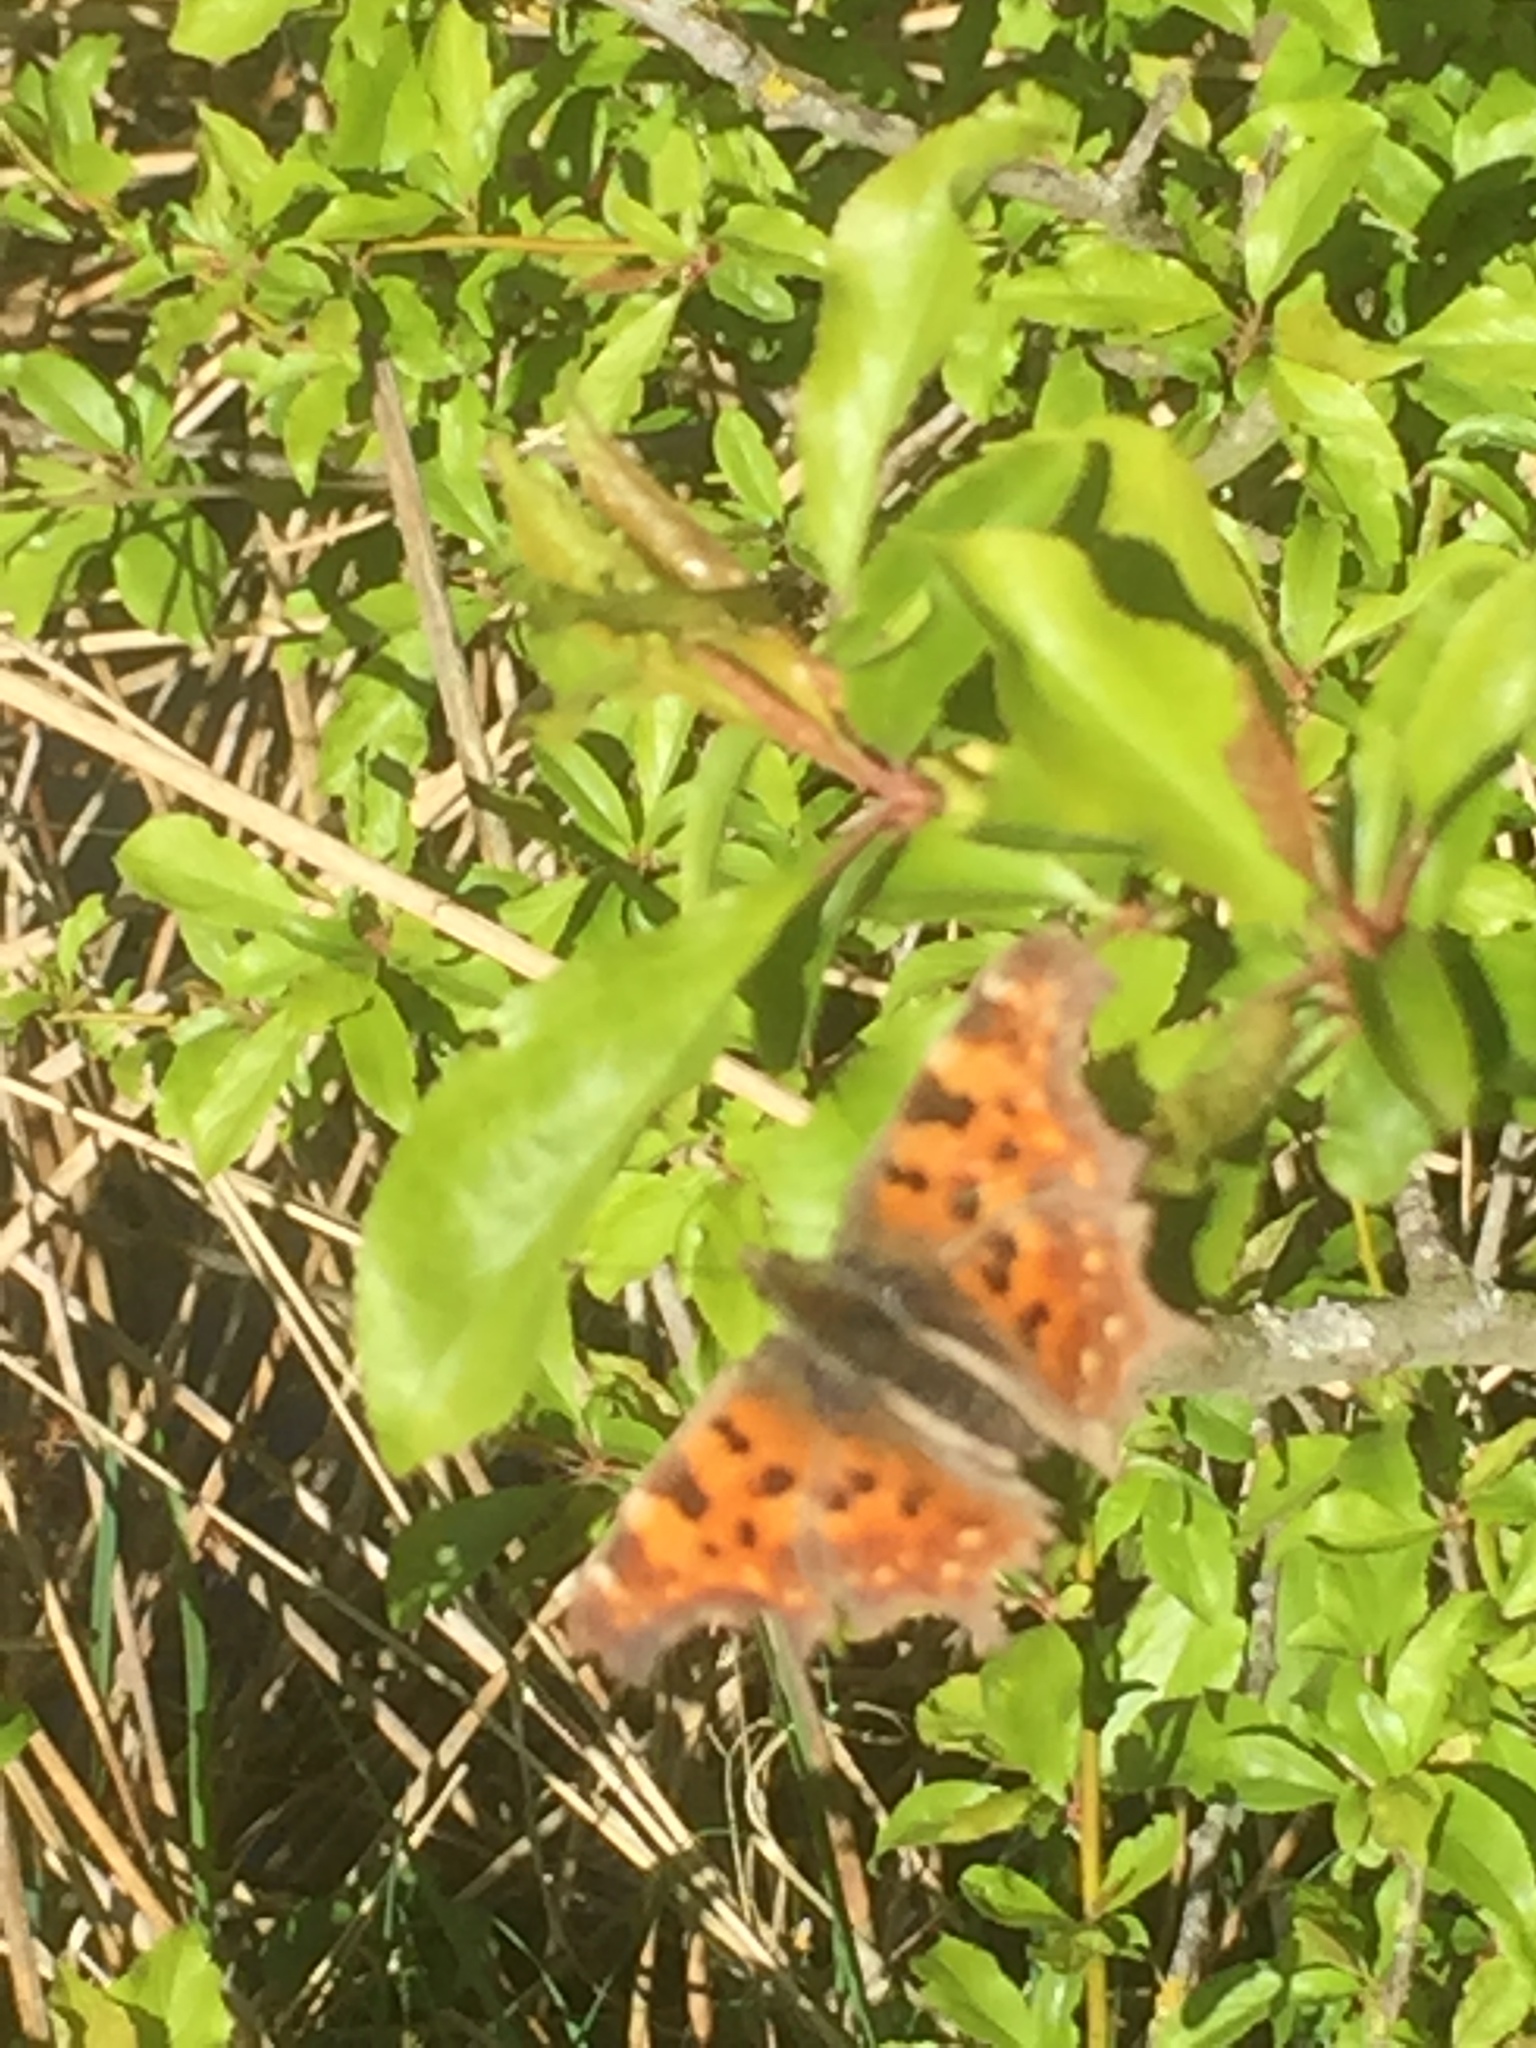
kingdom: Animalia
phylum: Arthropoda
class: Insecta
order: Lepidoptera
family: Nymphalidae
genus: Polygonia
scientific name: Polygonia c-album
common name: Comma
